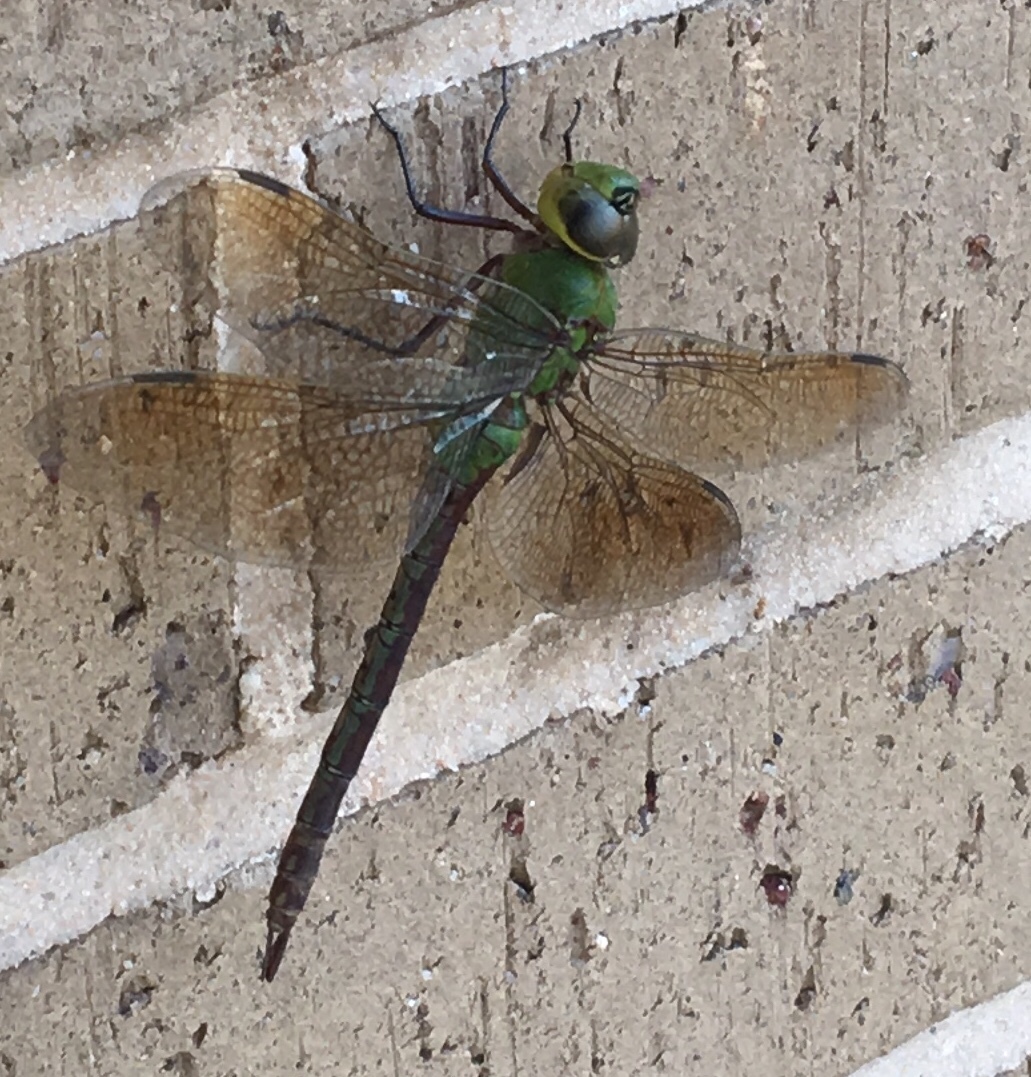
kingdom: Animalia
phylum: Arthropoda
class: Insecta
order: Odonata
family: Aeshnidae
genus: Anax
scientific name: Anax junius
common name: Common green darner
